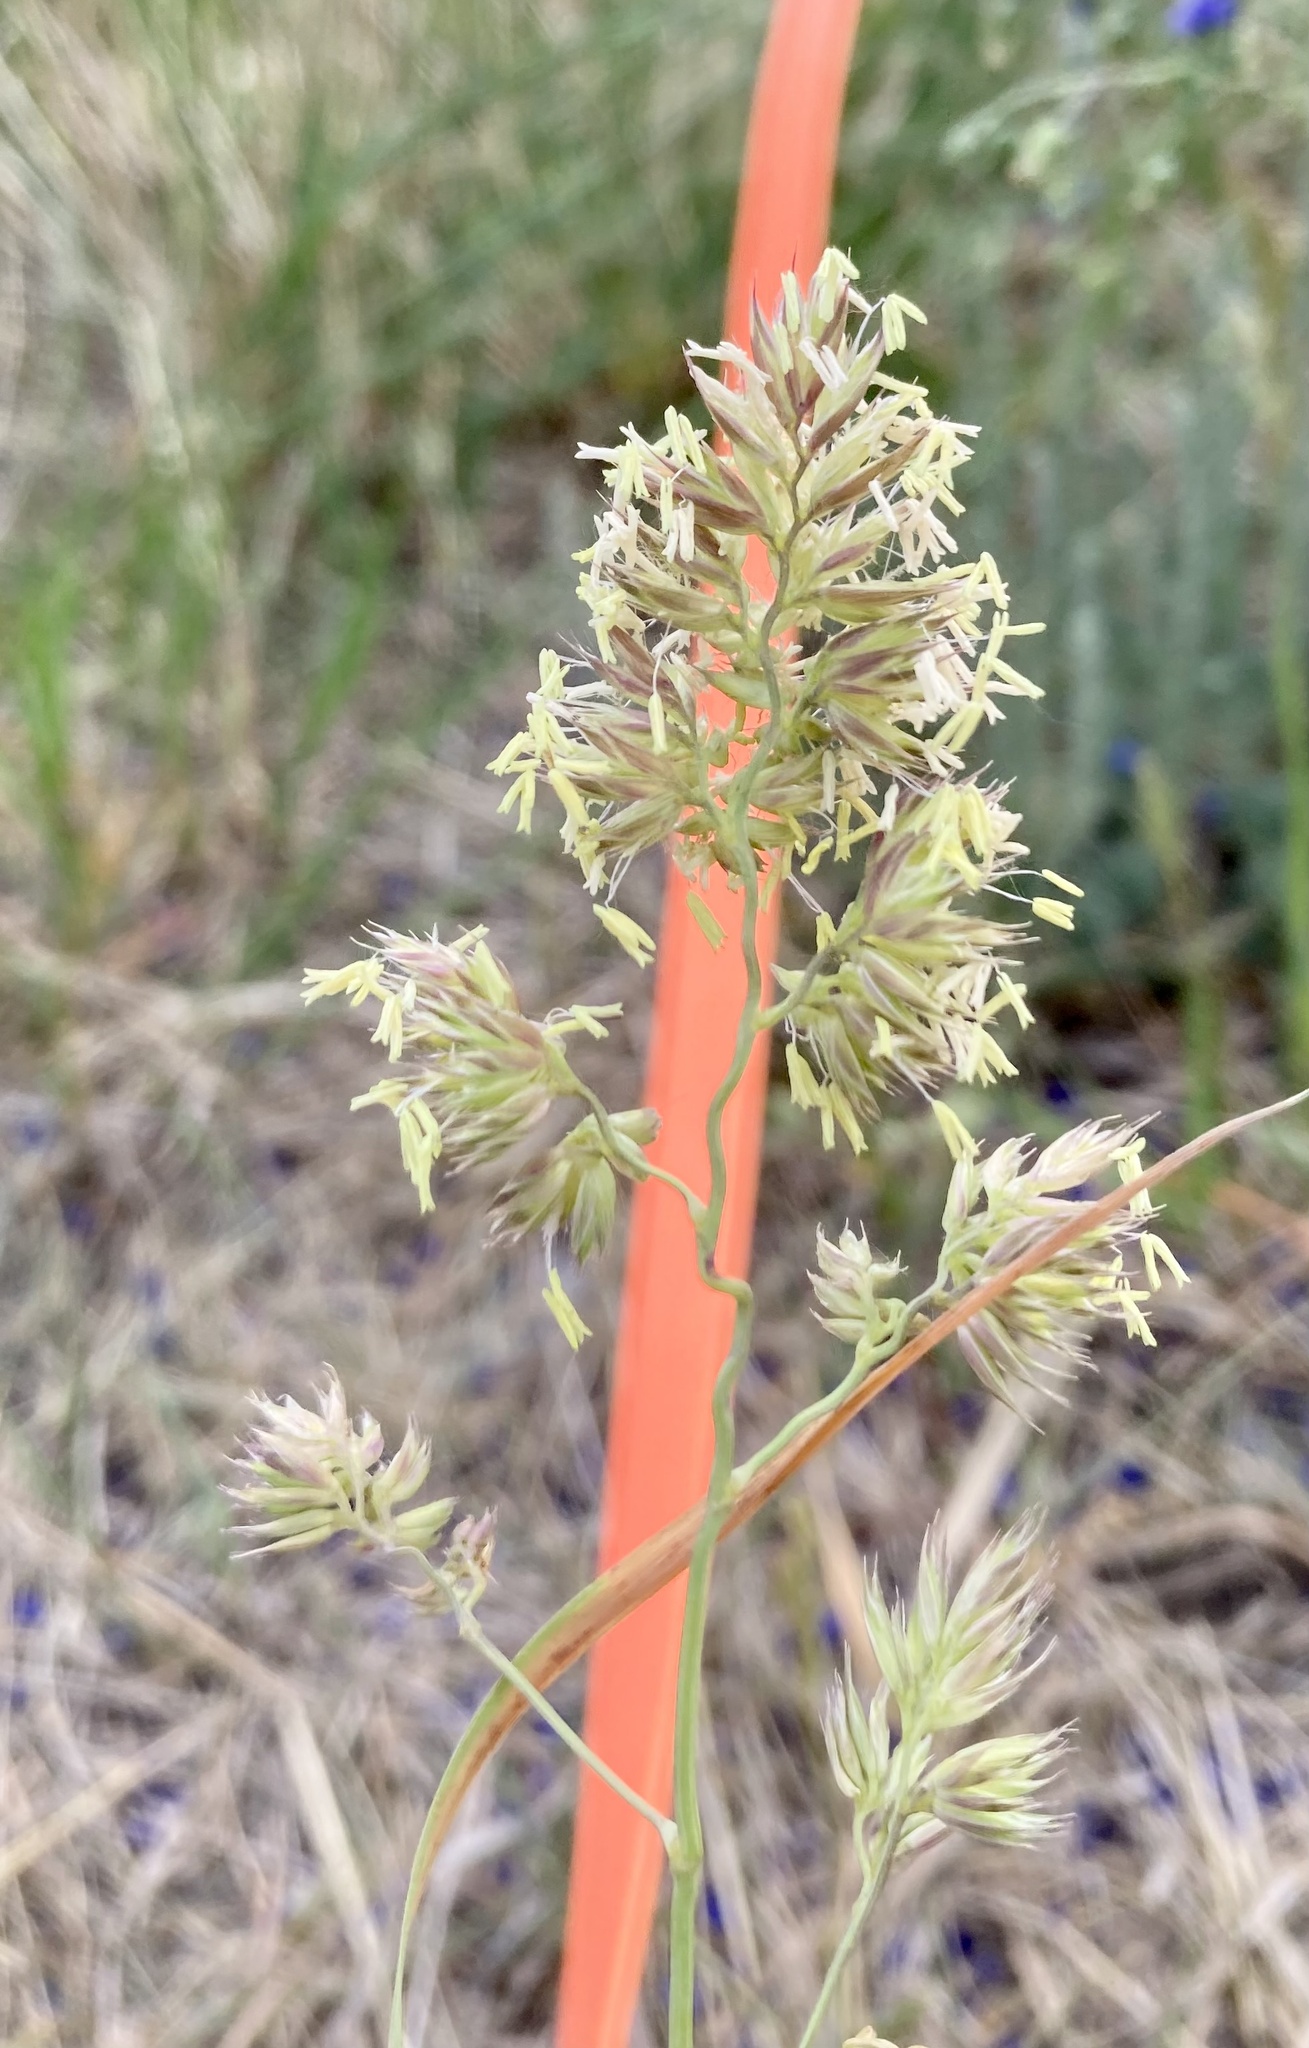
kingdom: Plantae
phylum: Tracheophyta
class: Liliopsida
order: Poales
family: Poaceae
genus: Dactylis
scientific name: Dactylis glomerata
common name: Orchardgrass
